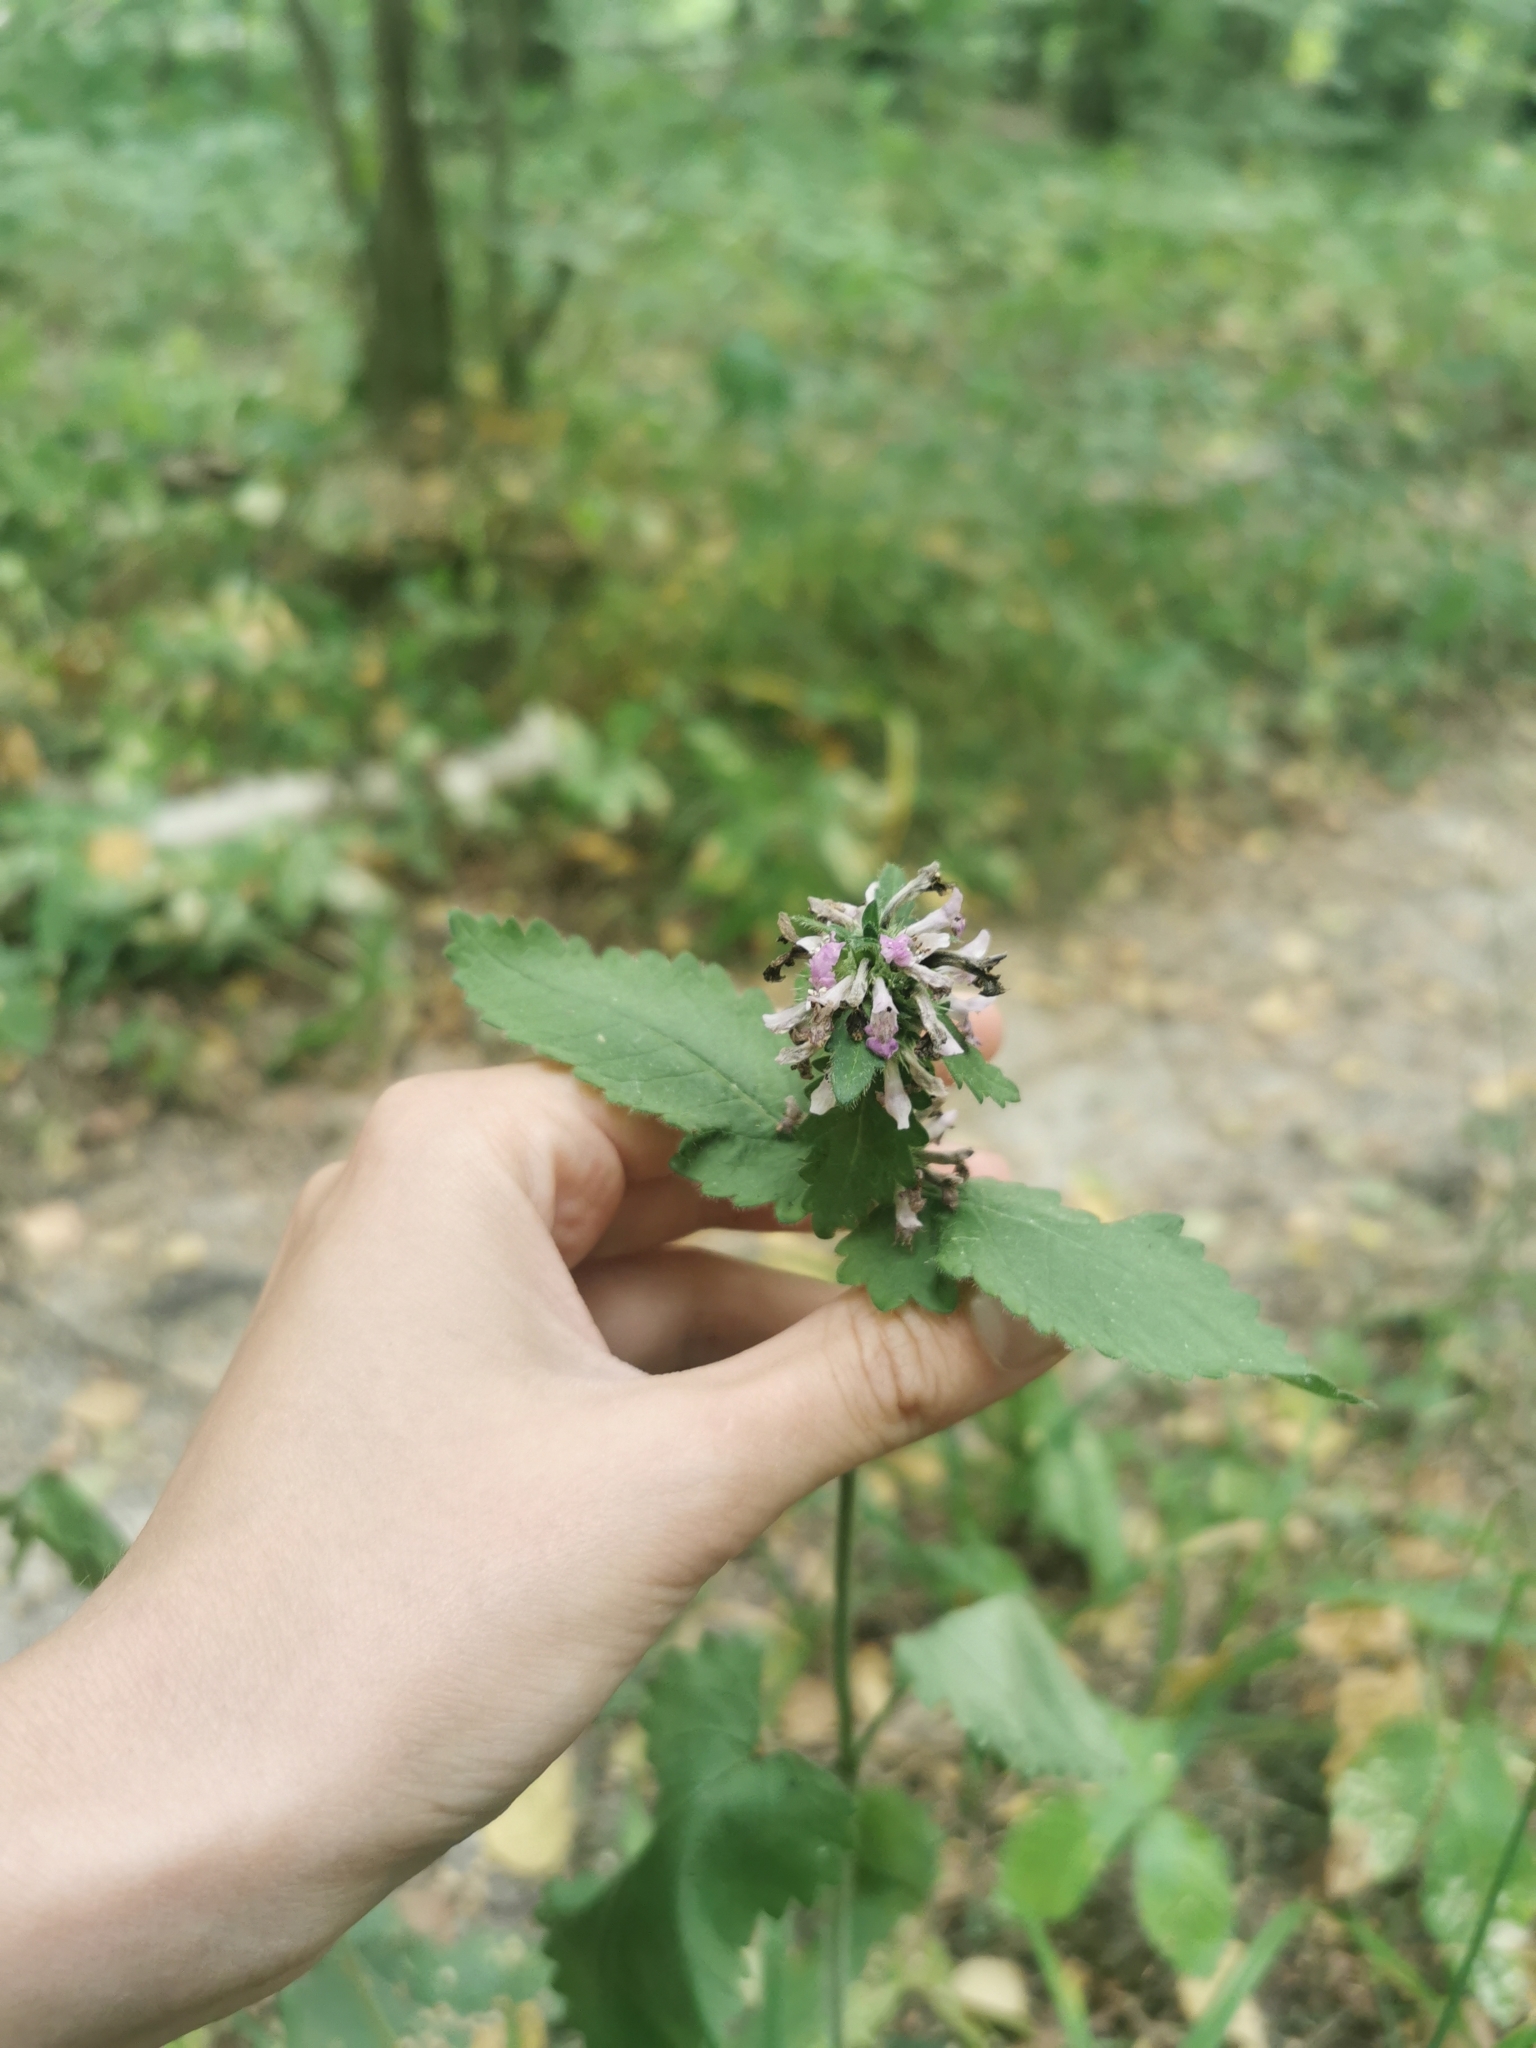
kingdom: Plantae
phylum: Tracheophyta
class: Magnoliopsida
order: Lamiales
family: Lamiaceae
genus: Betonica
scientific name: Betonica officinalis
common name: Bishop's-wort
